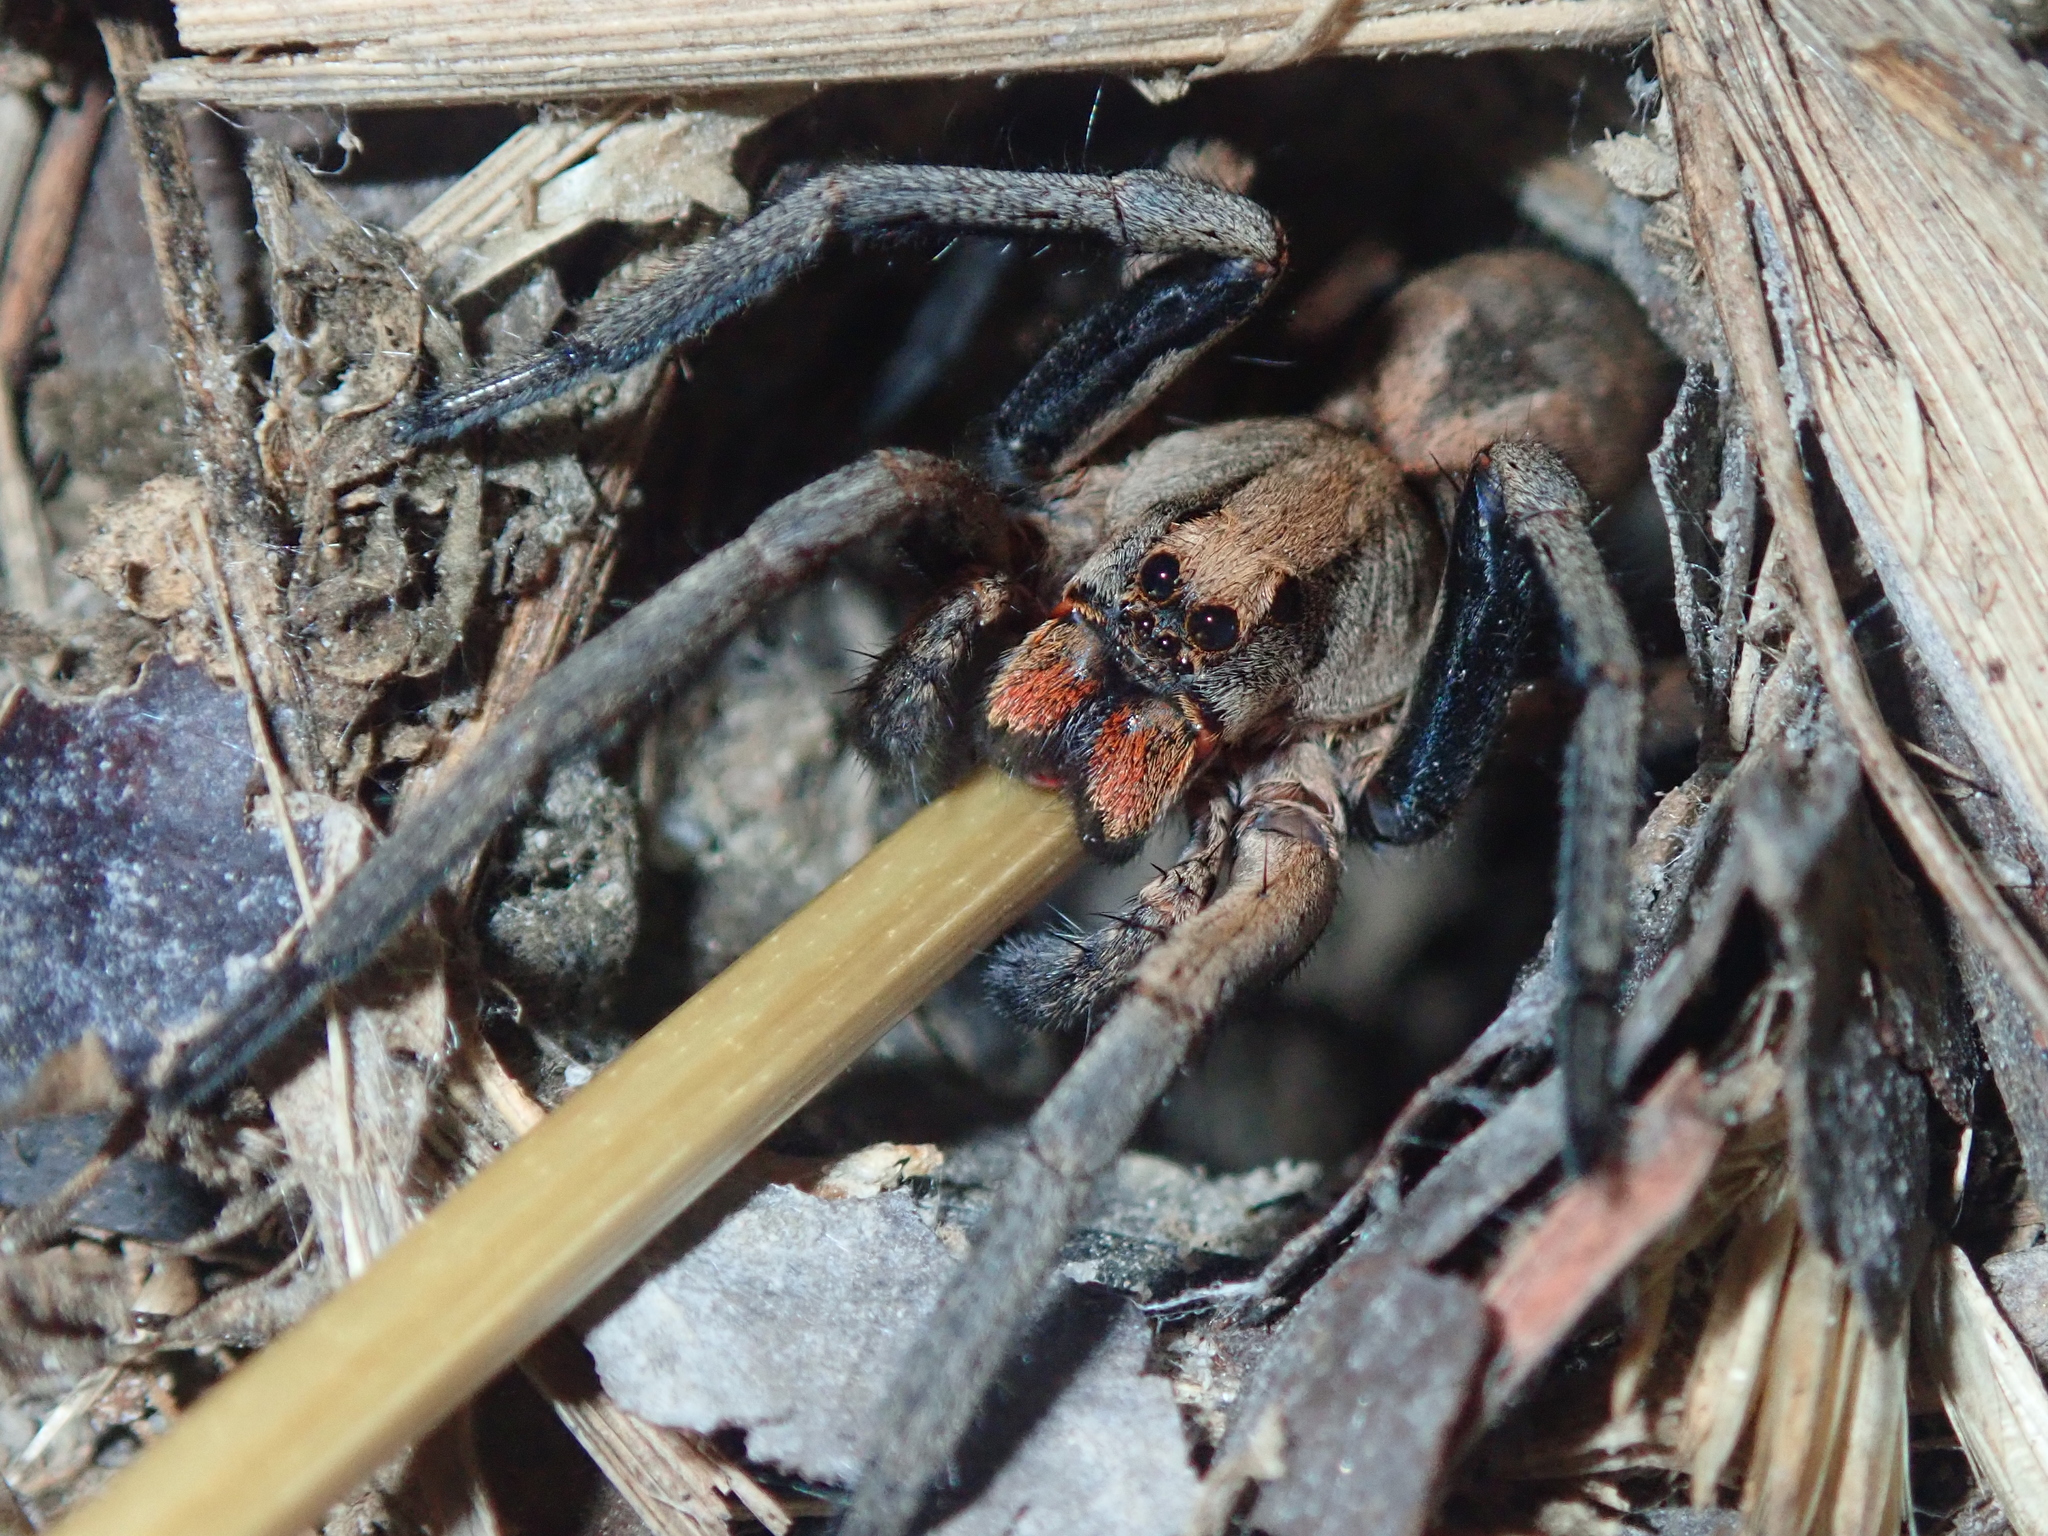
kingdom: Animalia
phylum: Arthropoda
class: Arachnida
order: Araneae
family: Lycosidae
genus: Lycosa
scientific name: Lycosa erythrognatha
